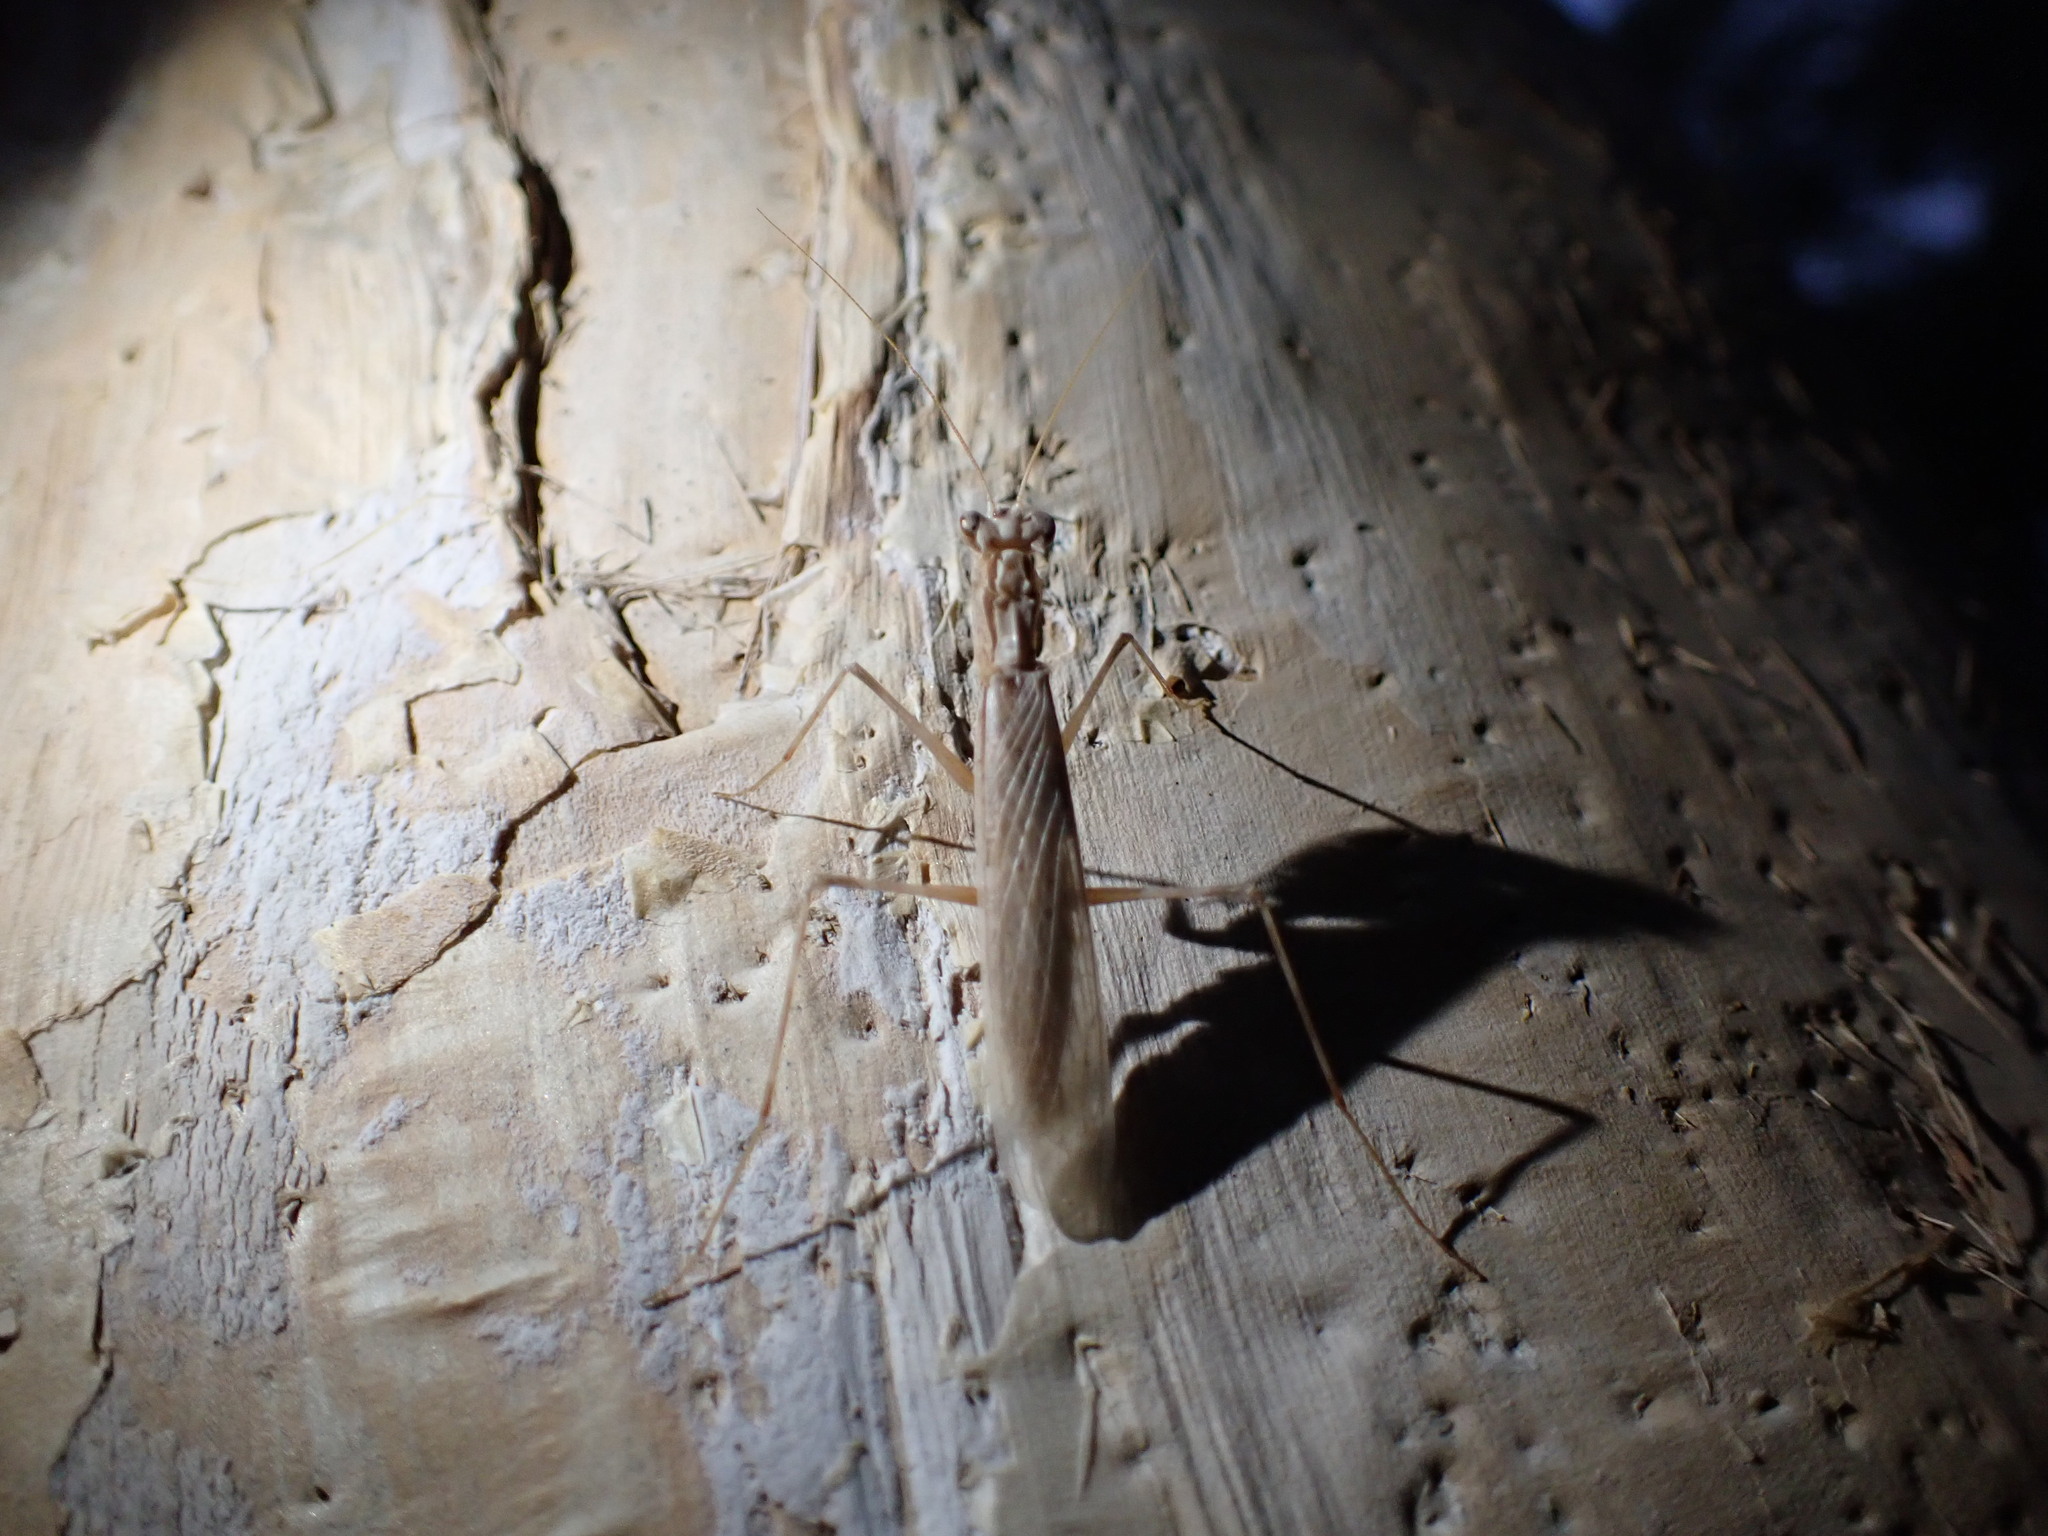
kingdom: Animalia
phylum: Arthropoda
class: Insecta
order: Mantodea
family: Nanomantidae
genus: Ima
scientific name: Ima fusca
